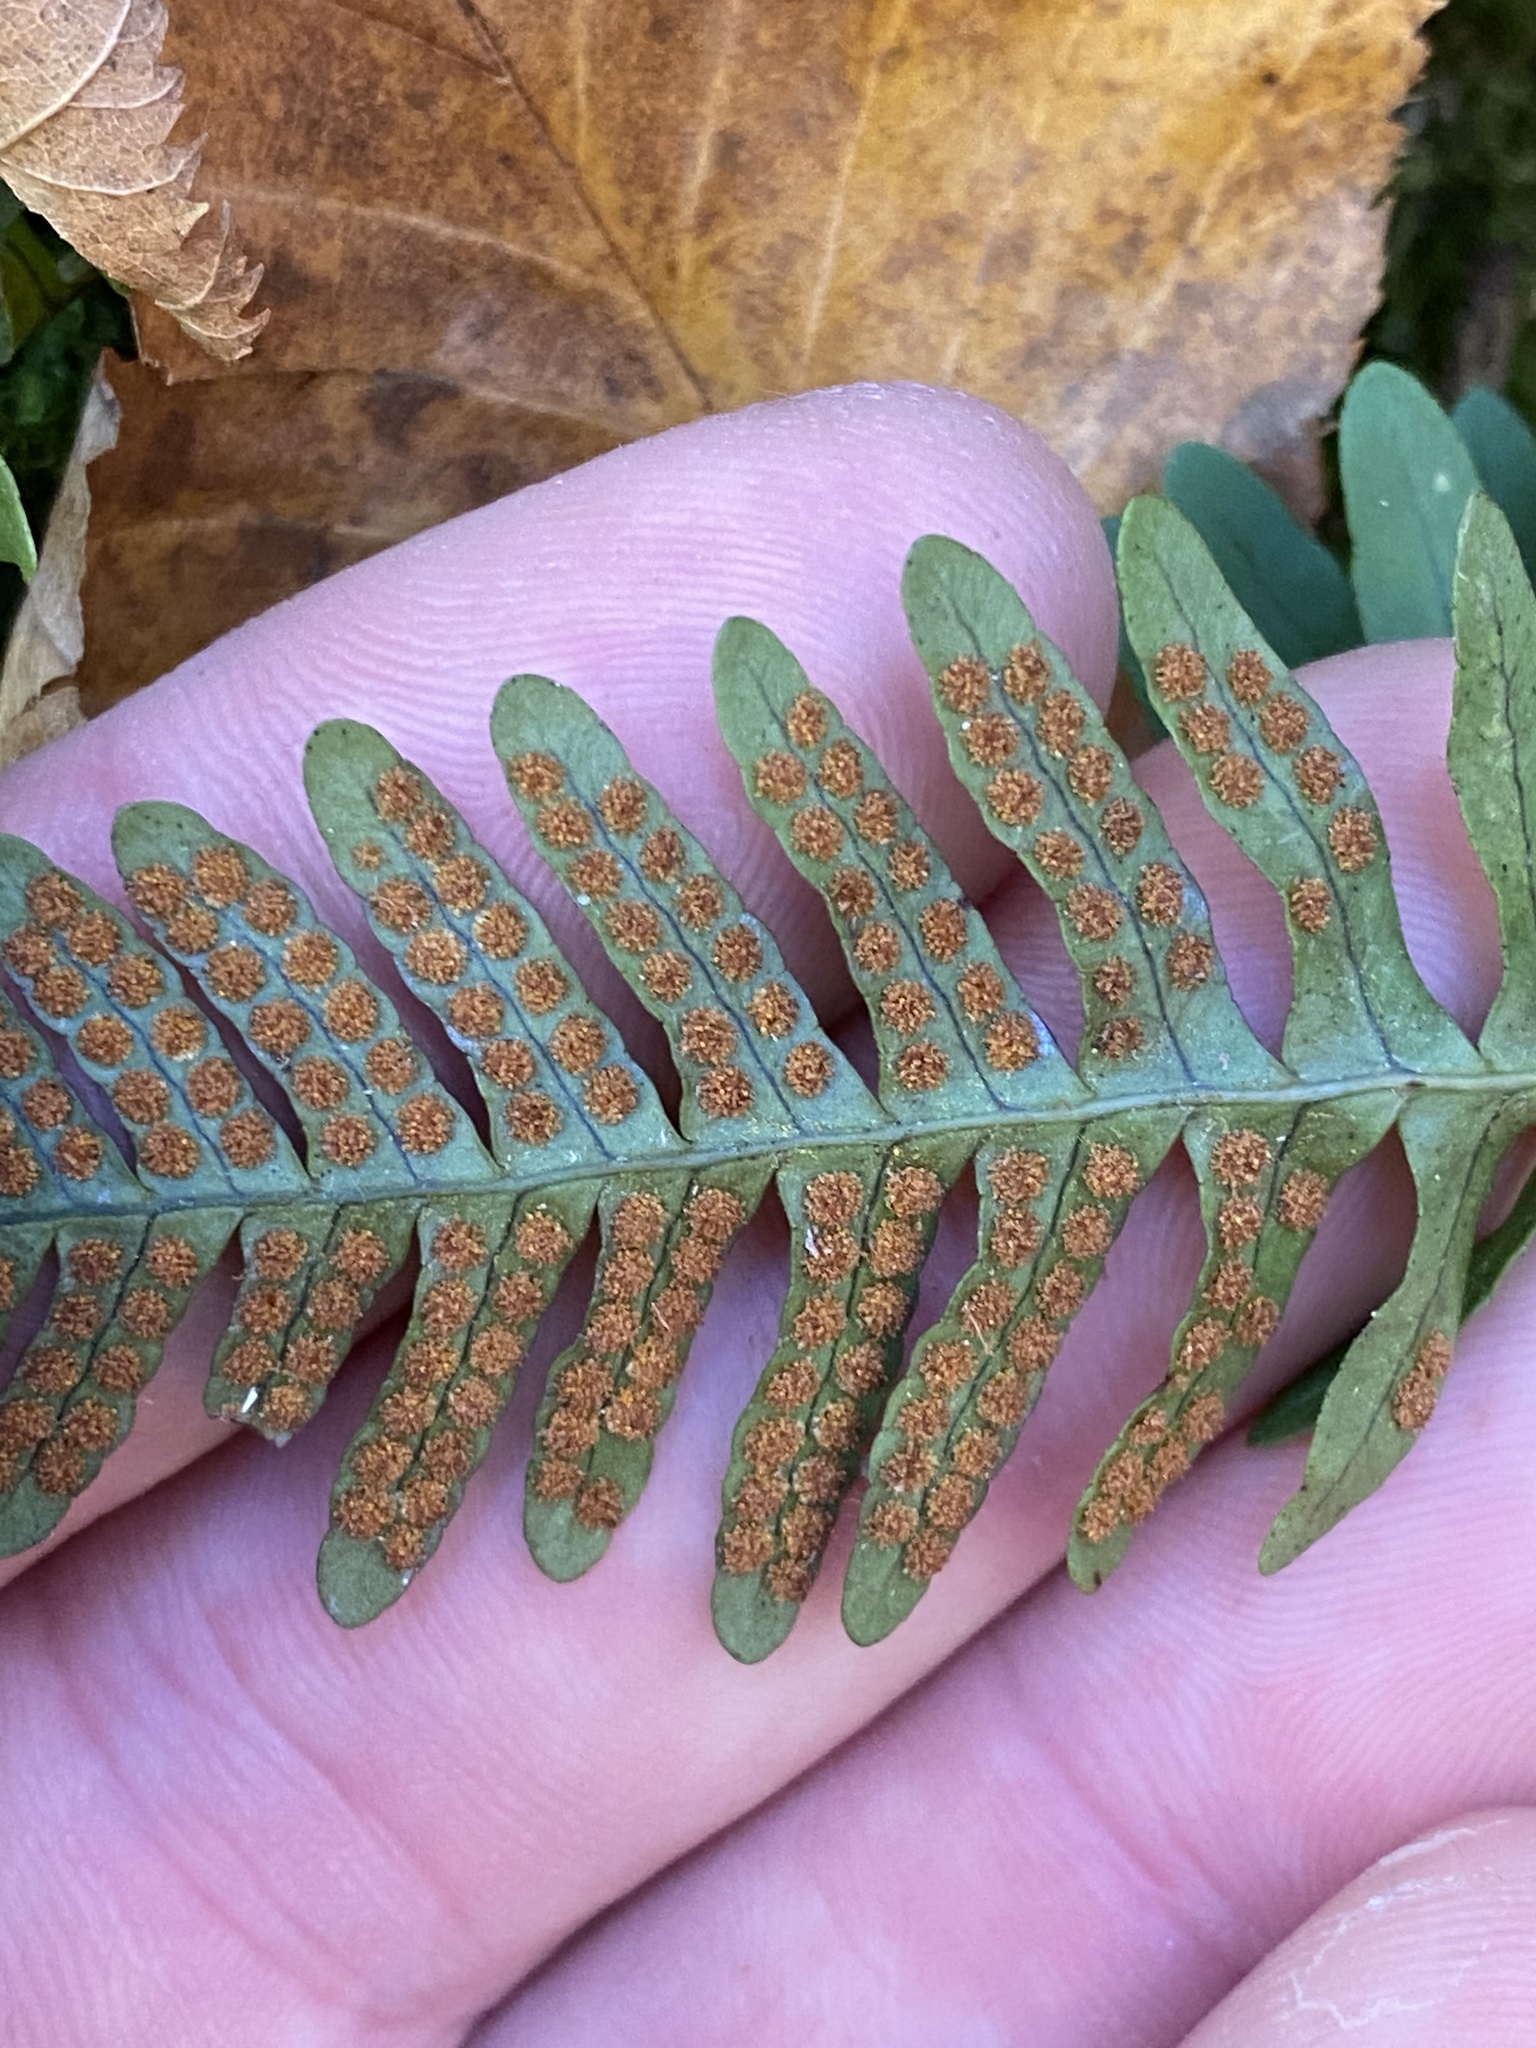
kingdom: Plantae
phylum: Tracheophyta
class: Polypodiopsida
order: Polypodiales
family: Polypodiaceae
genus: Polypodium
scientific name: Polypodium virginianum
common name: American wall fern
